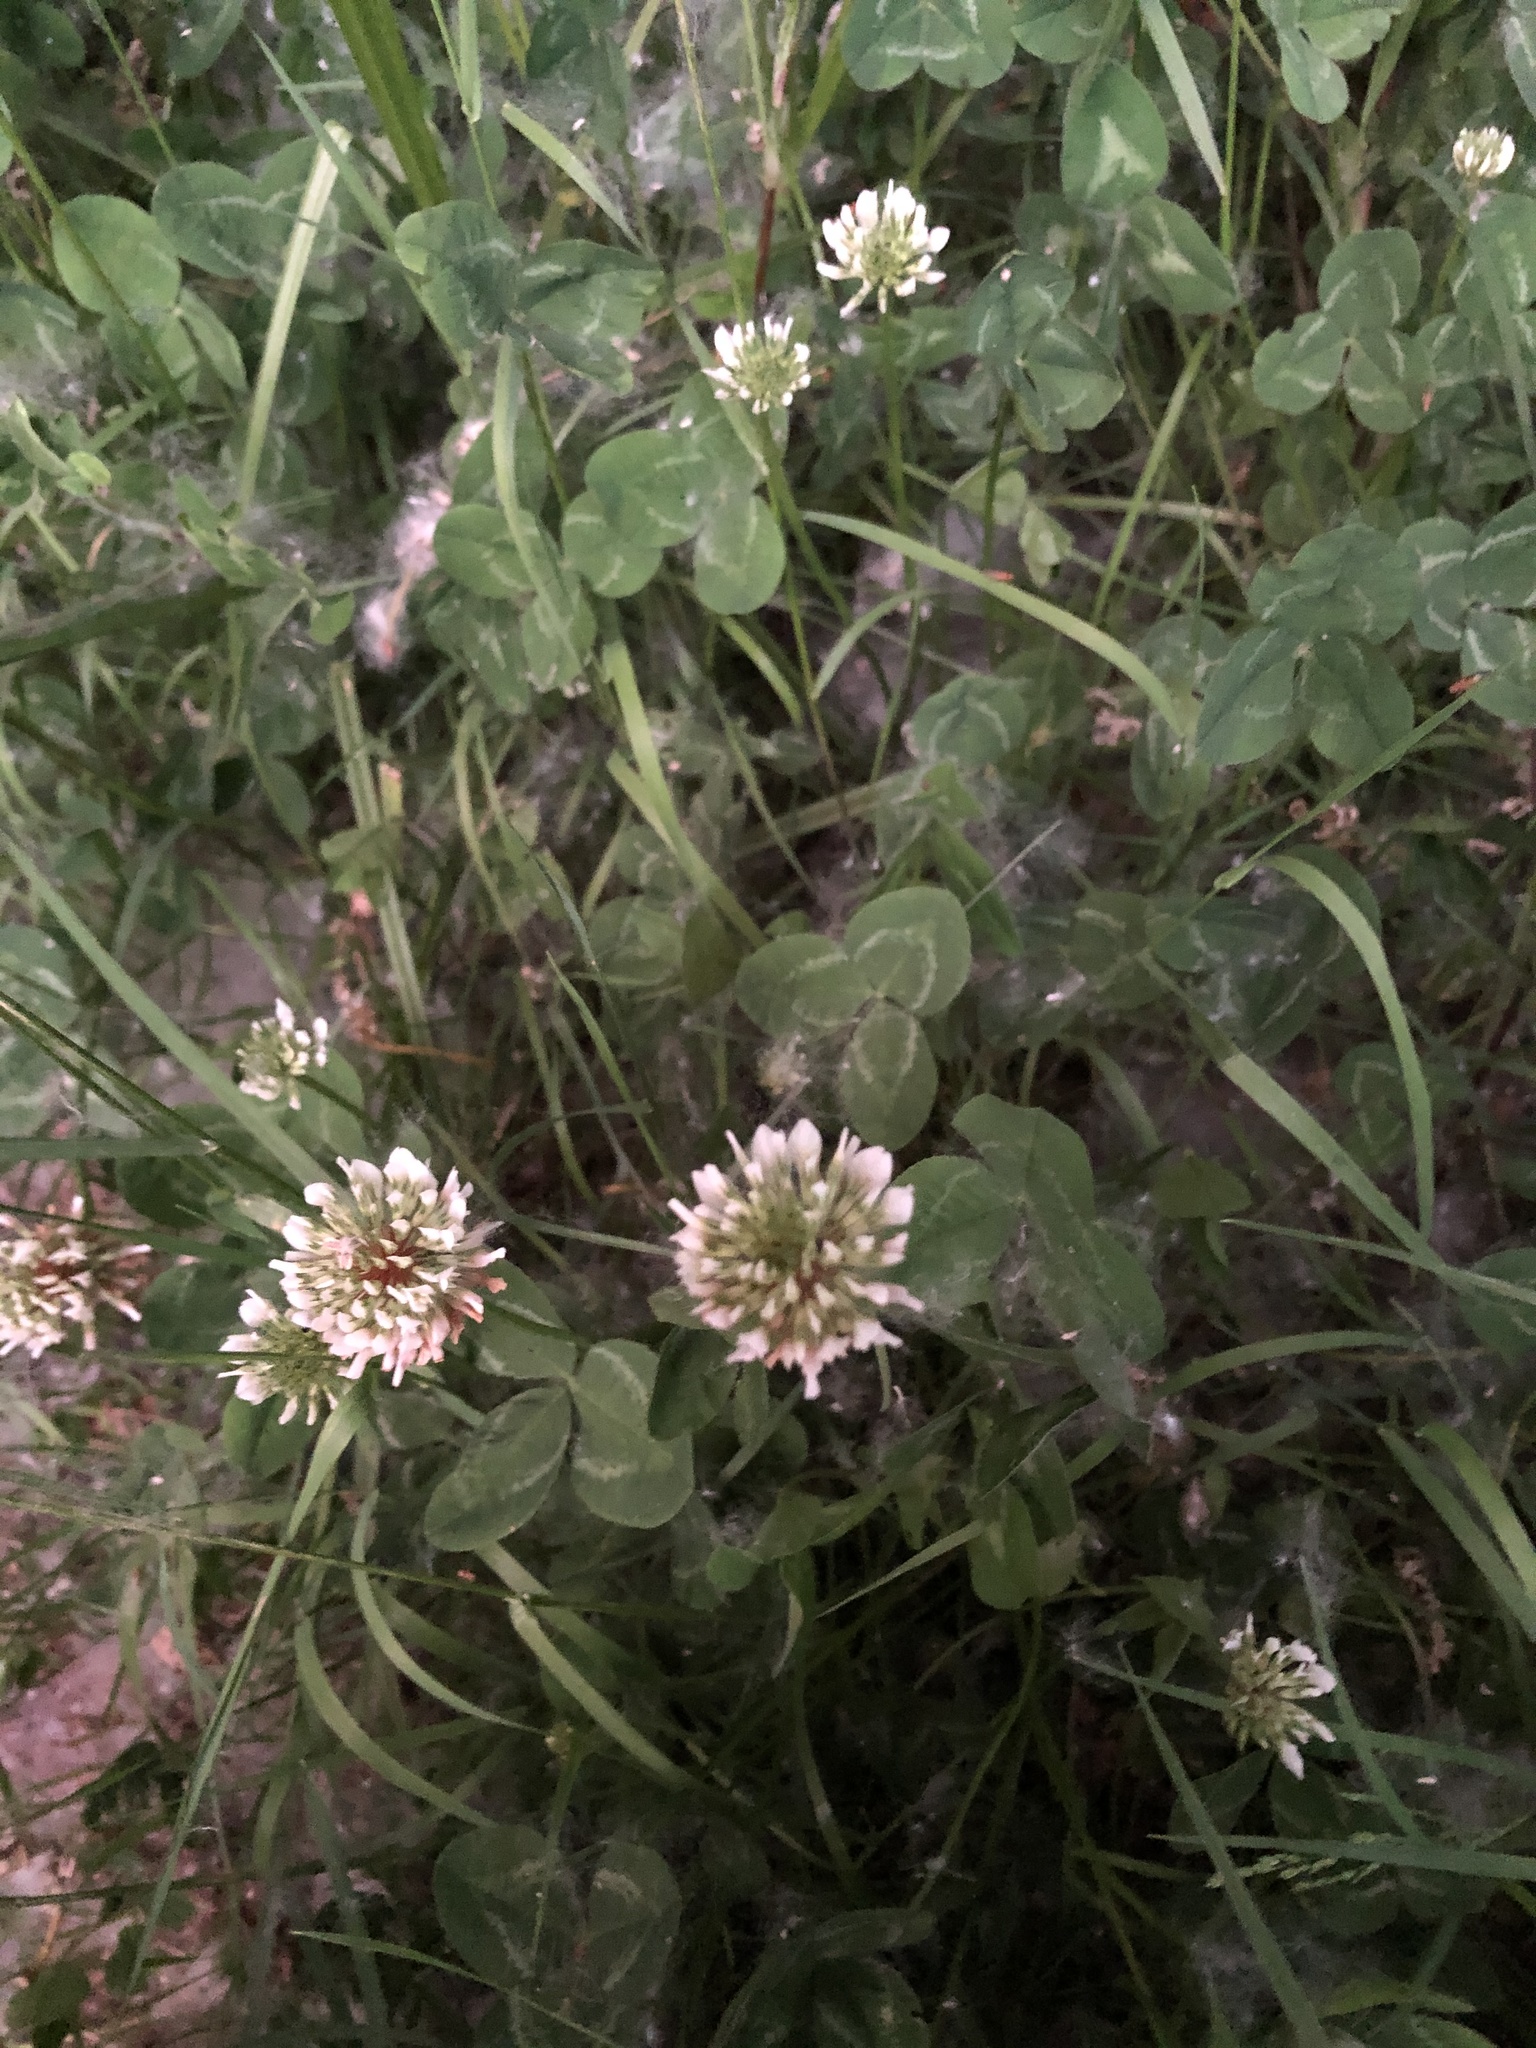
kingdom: Plantae
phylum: Tracheophyta
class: Magnoliopsida
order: Fabales
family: Fabaceae
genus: Trifolium
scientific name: Trifolium repens
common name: White clover
